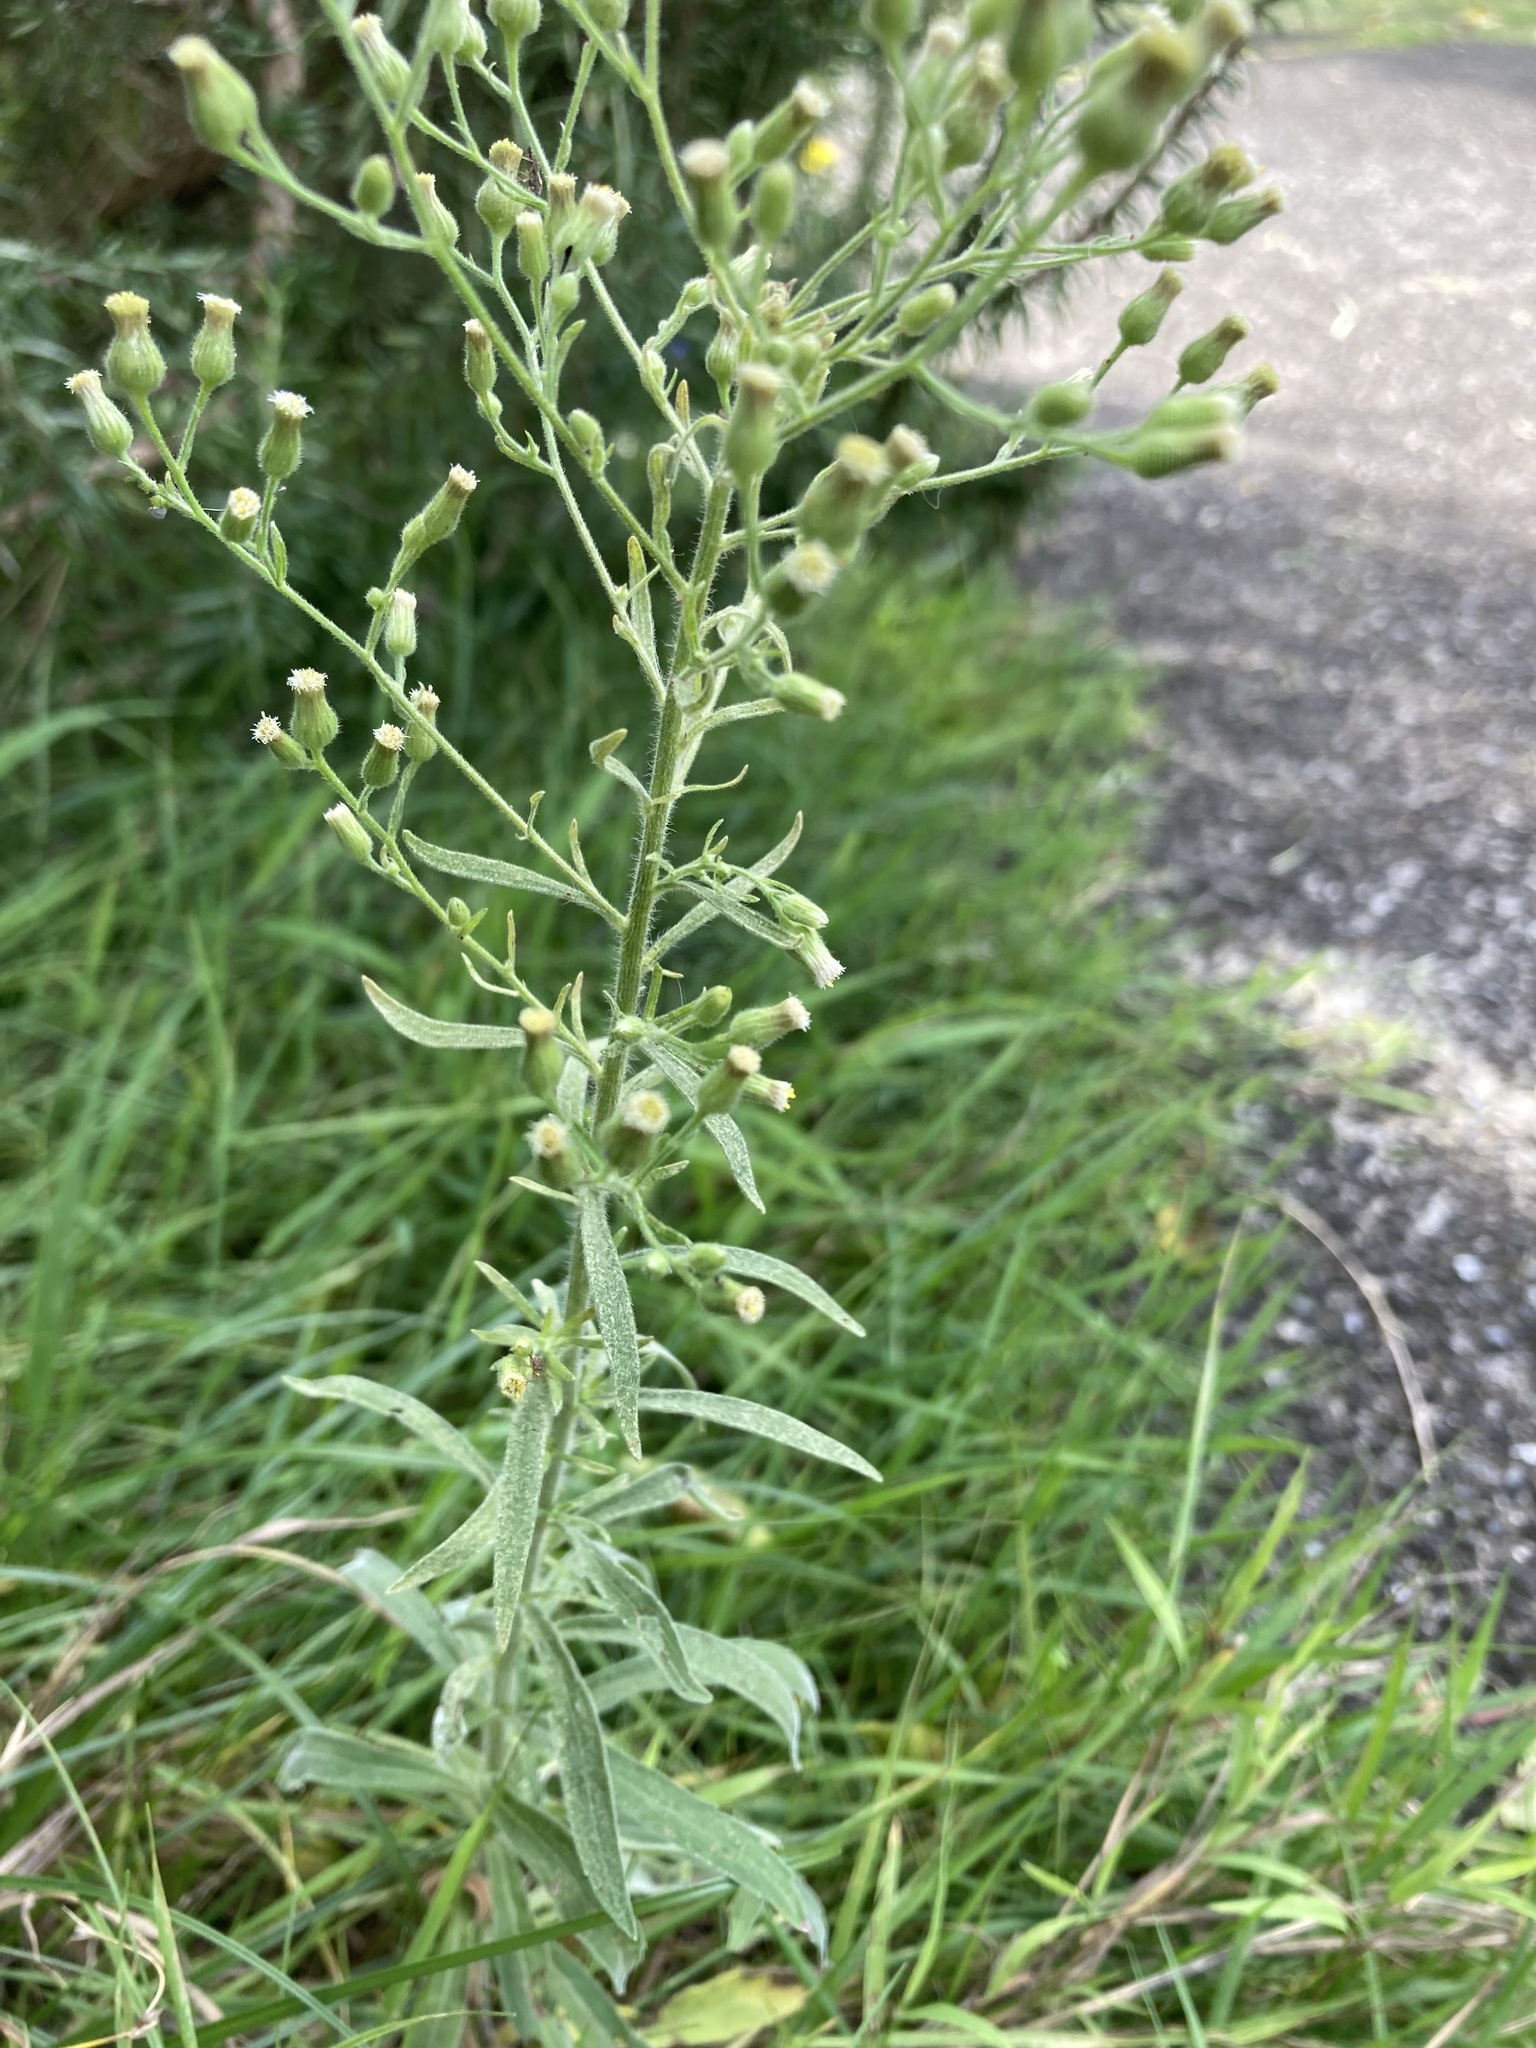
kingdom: Plantae
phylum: Tracheophyta
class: Magnoliopsida
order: Asterales
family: Asteraceae
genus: Erigeron
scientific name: Erigeron sumatrensis
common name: Daisy
